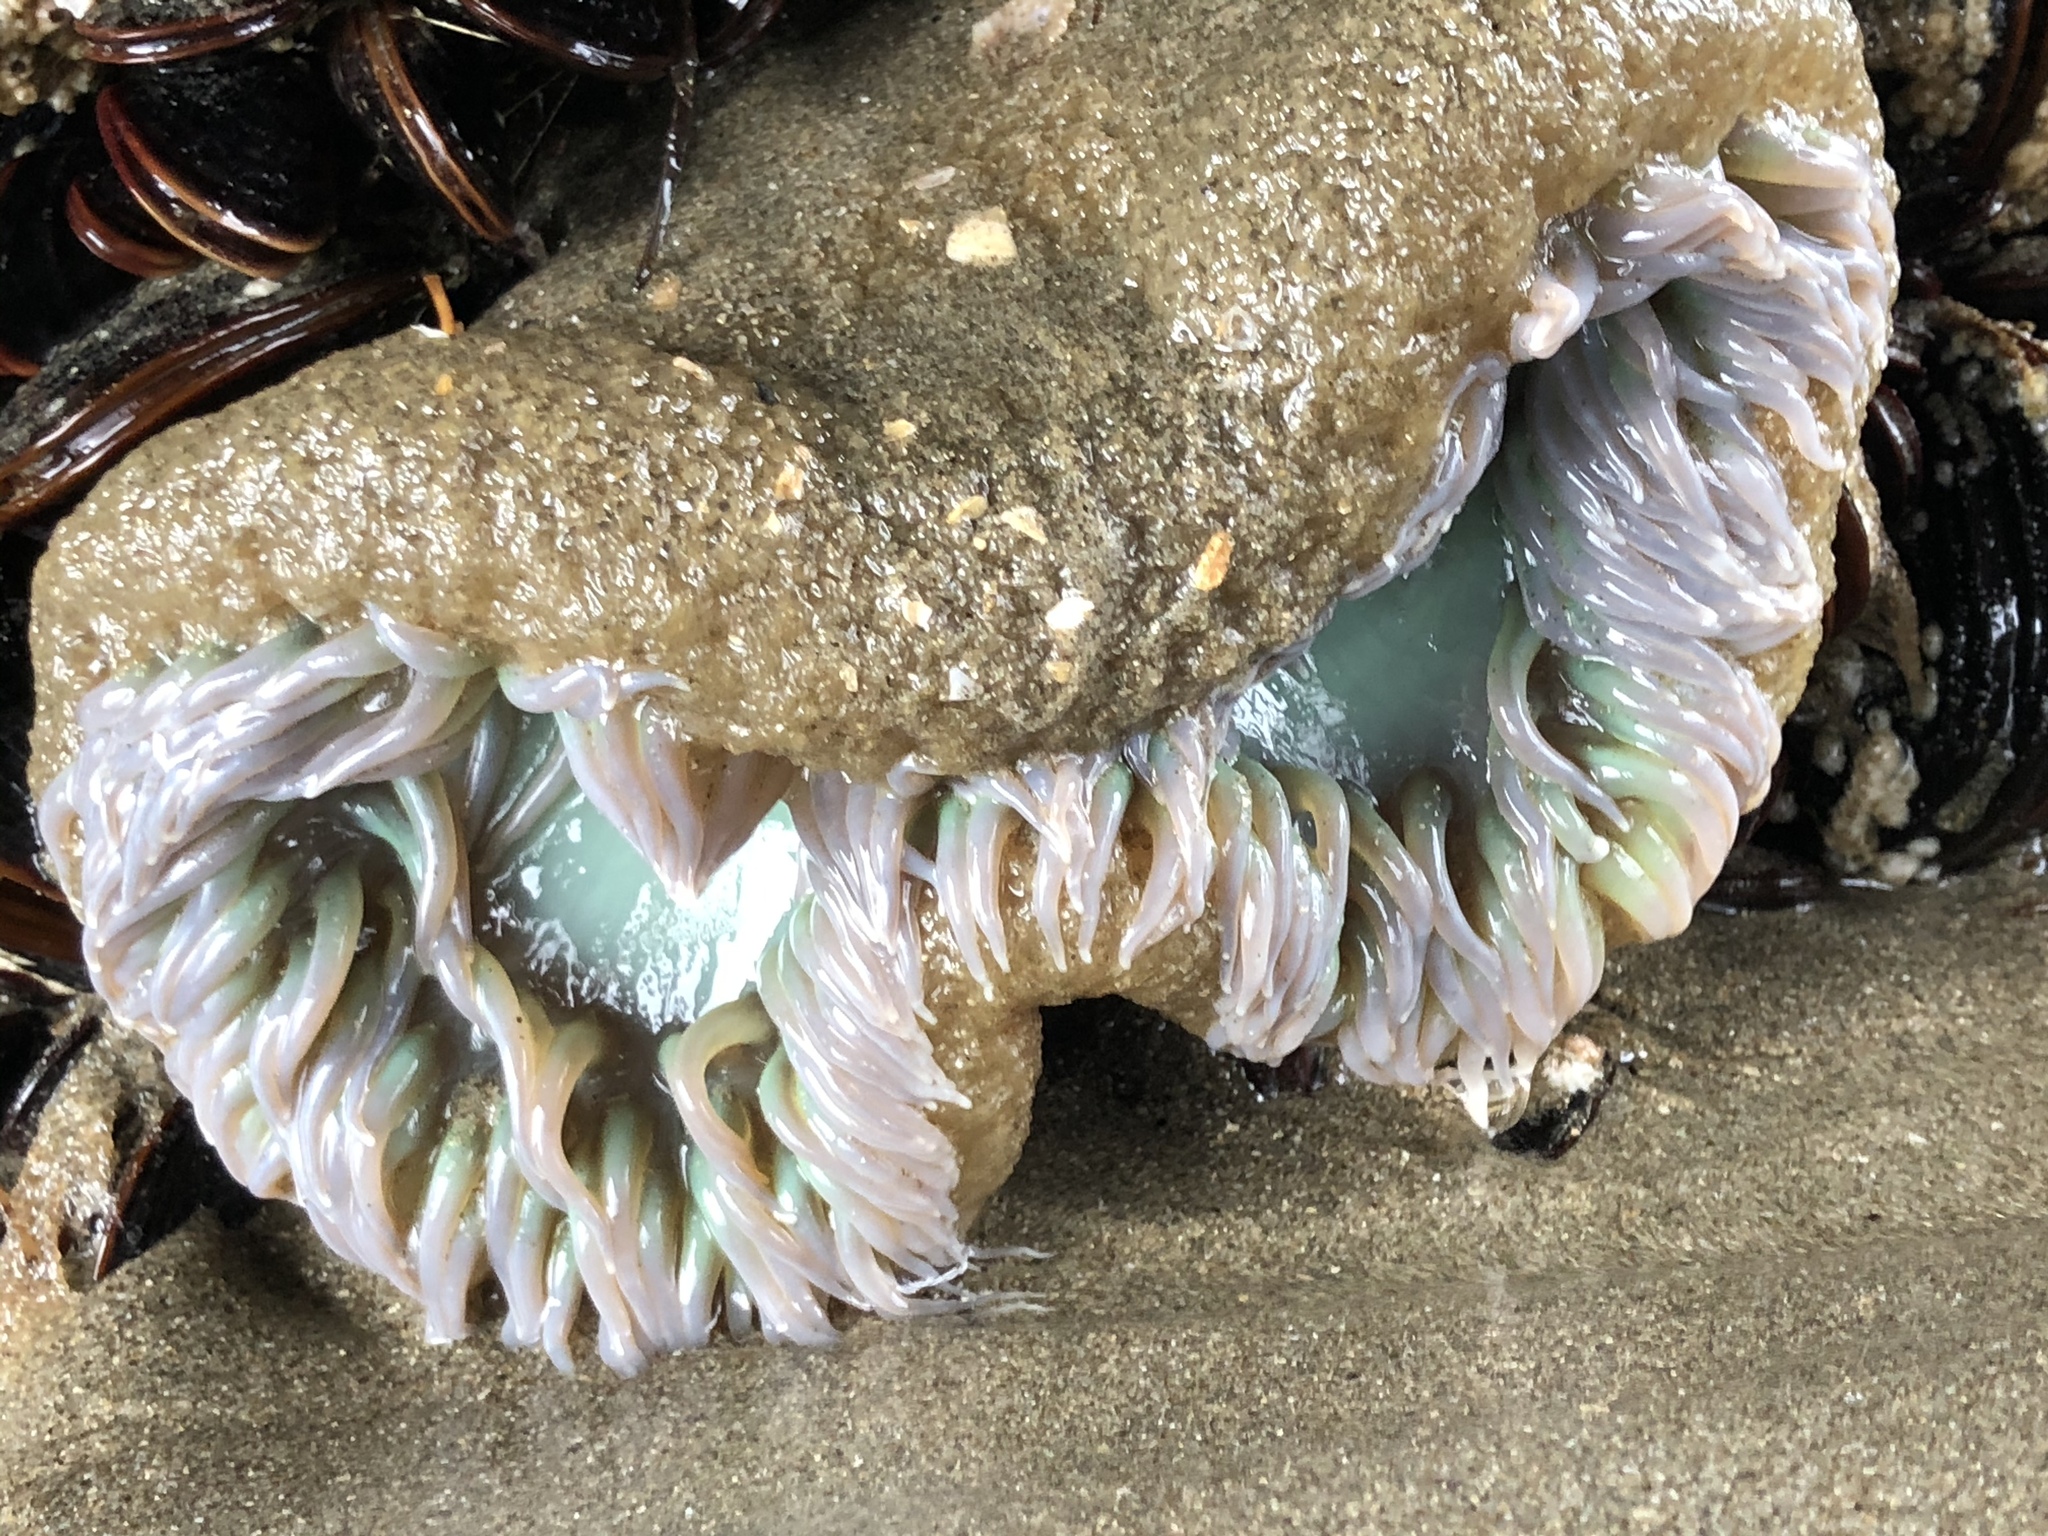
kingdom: Animalia
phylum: Cnidaria
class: Anthozoa
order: Actiniaria
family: Actiniidae
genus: Anthopleura
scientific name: Anthopleura xanthogrammica
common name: Giant green anemone
